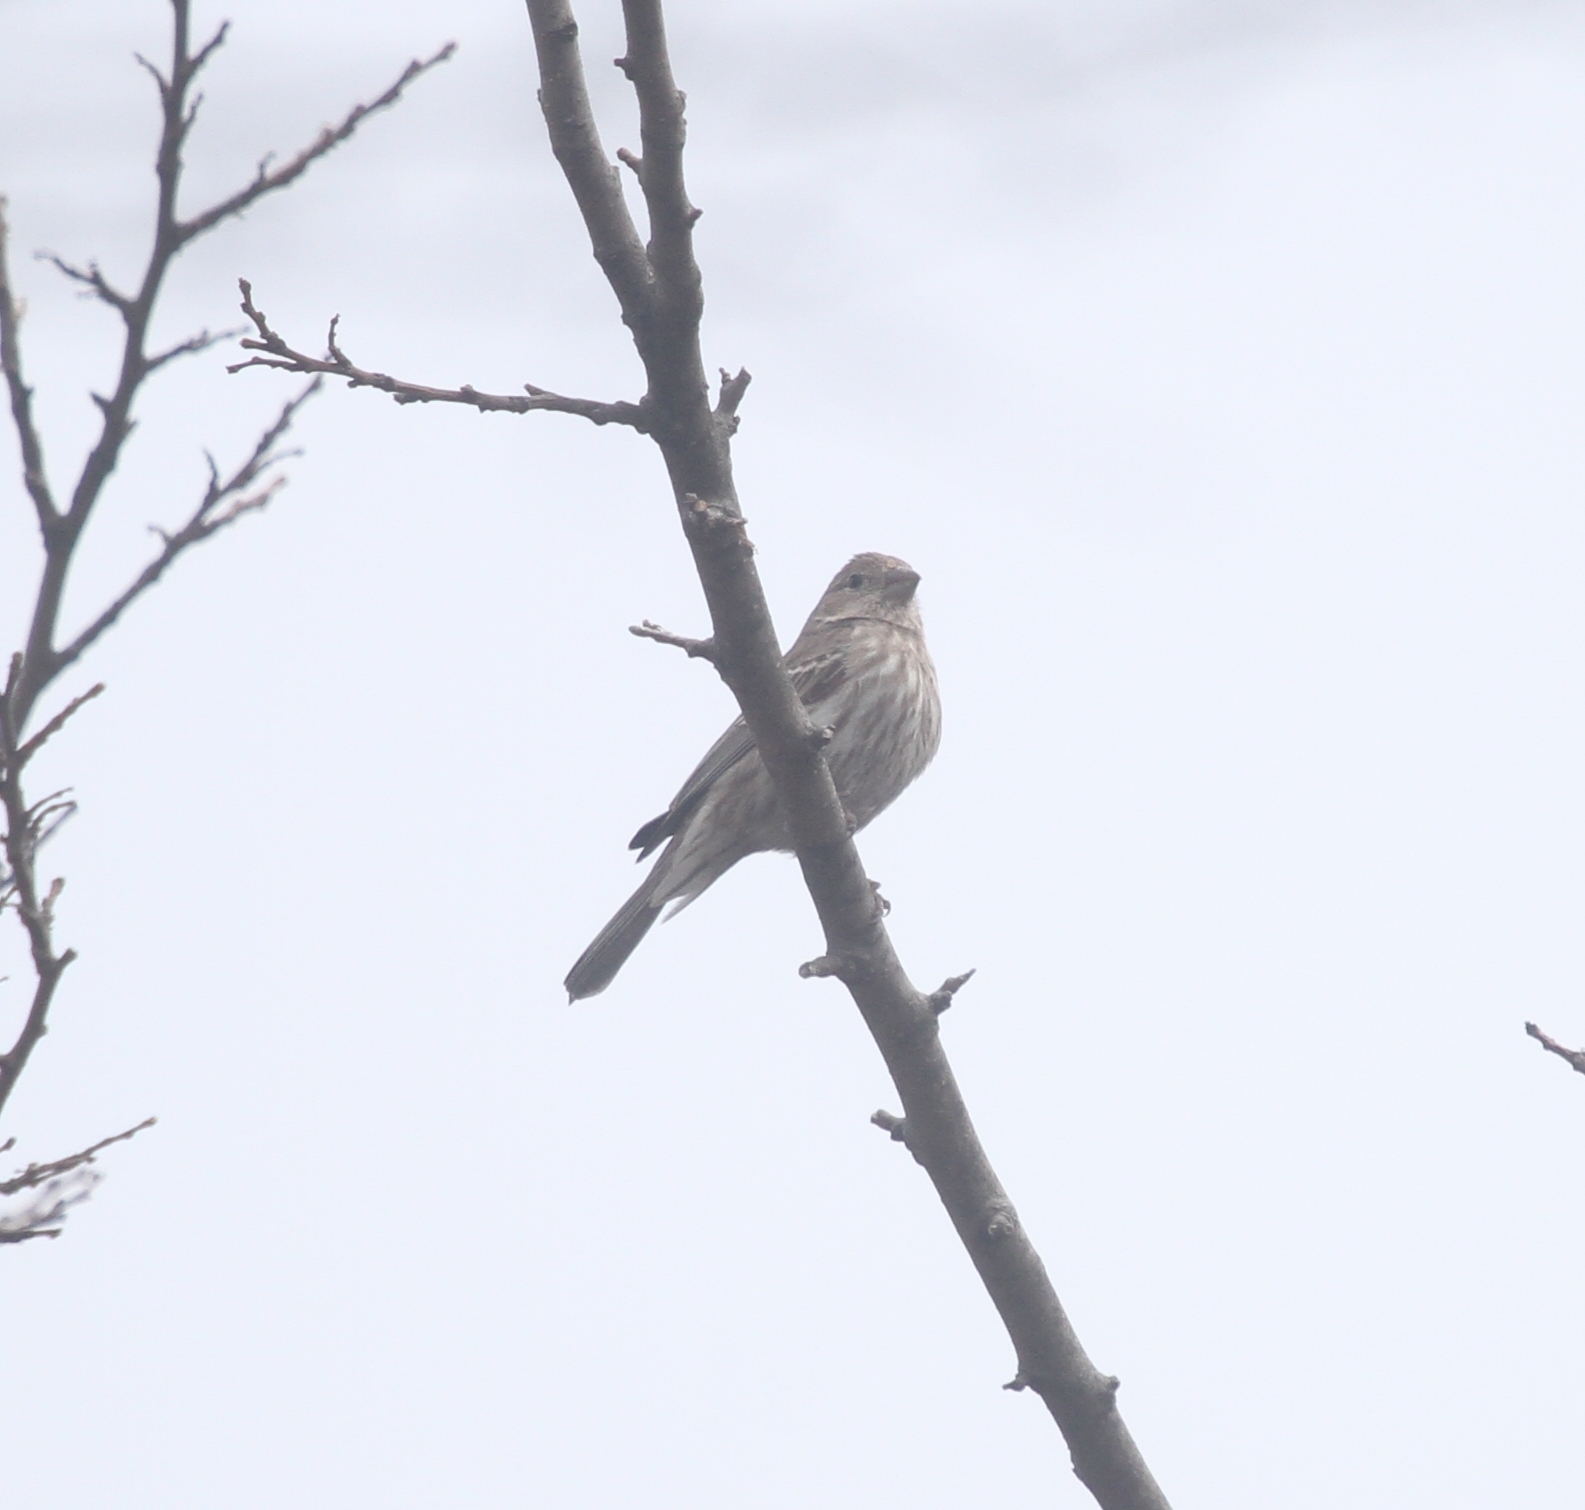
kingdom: Animalia
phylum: Chordata
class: Aves
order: Passeriformes
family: Fringillidae
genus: Haemorhous
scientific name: Haemorhous mexicanus
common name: House finch
